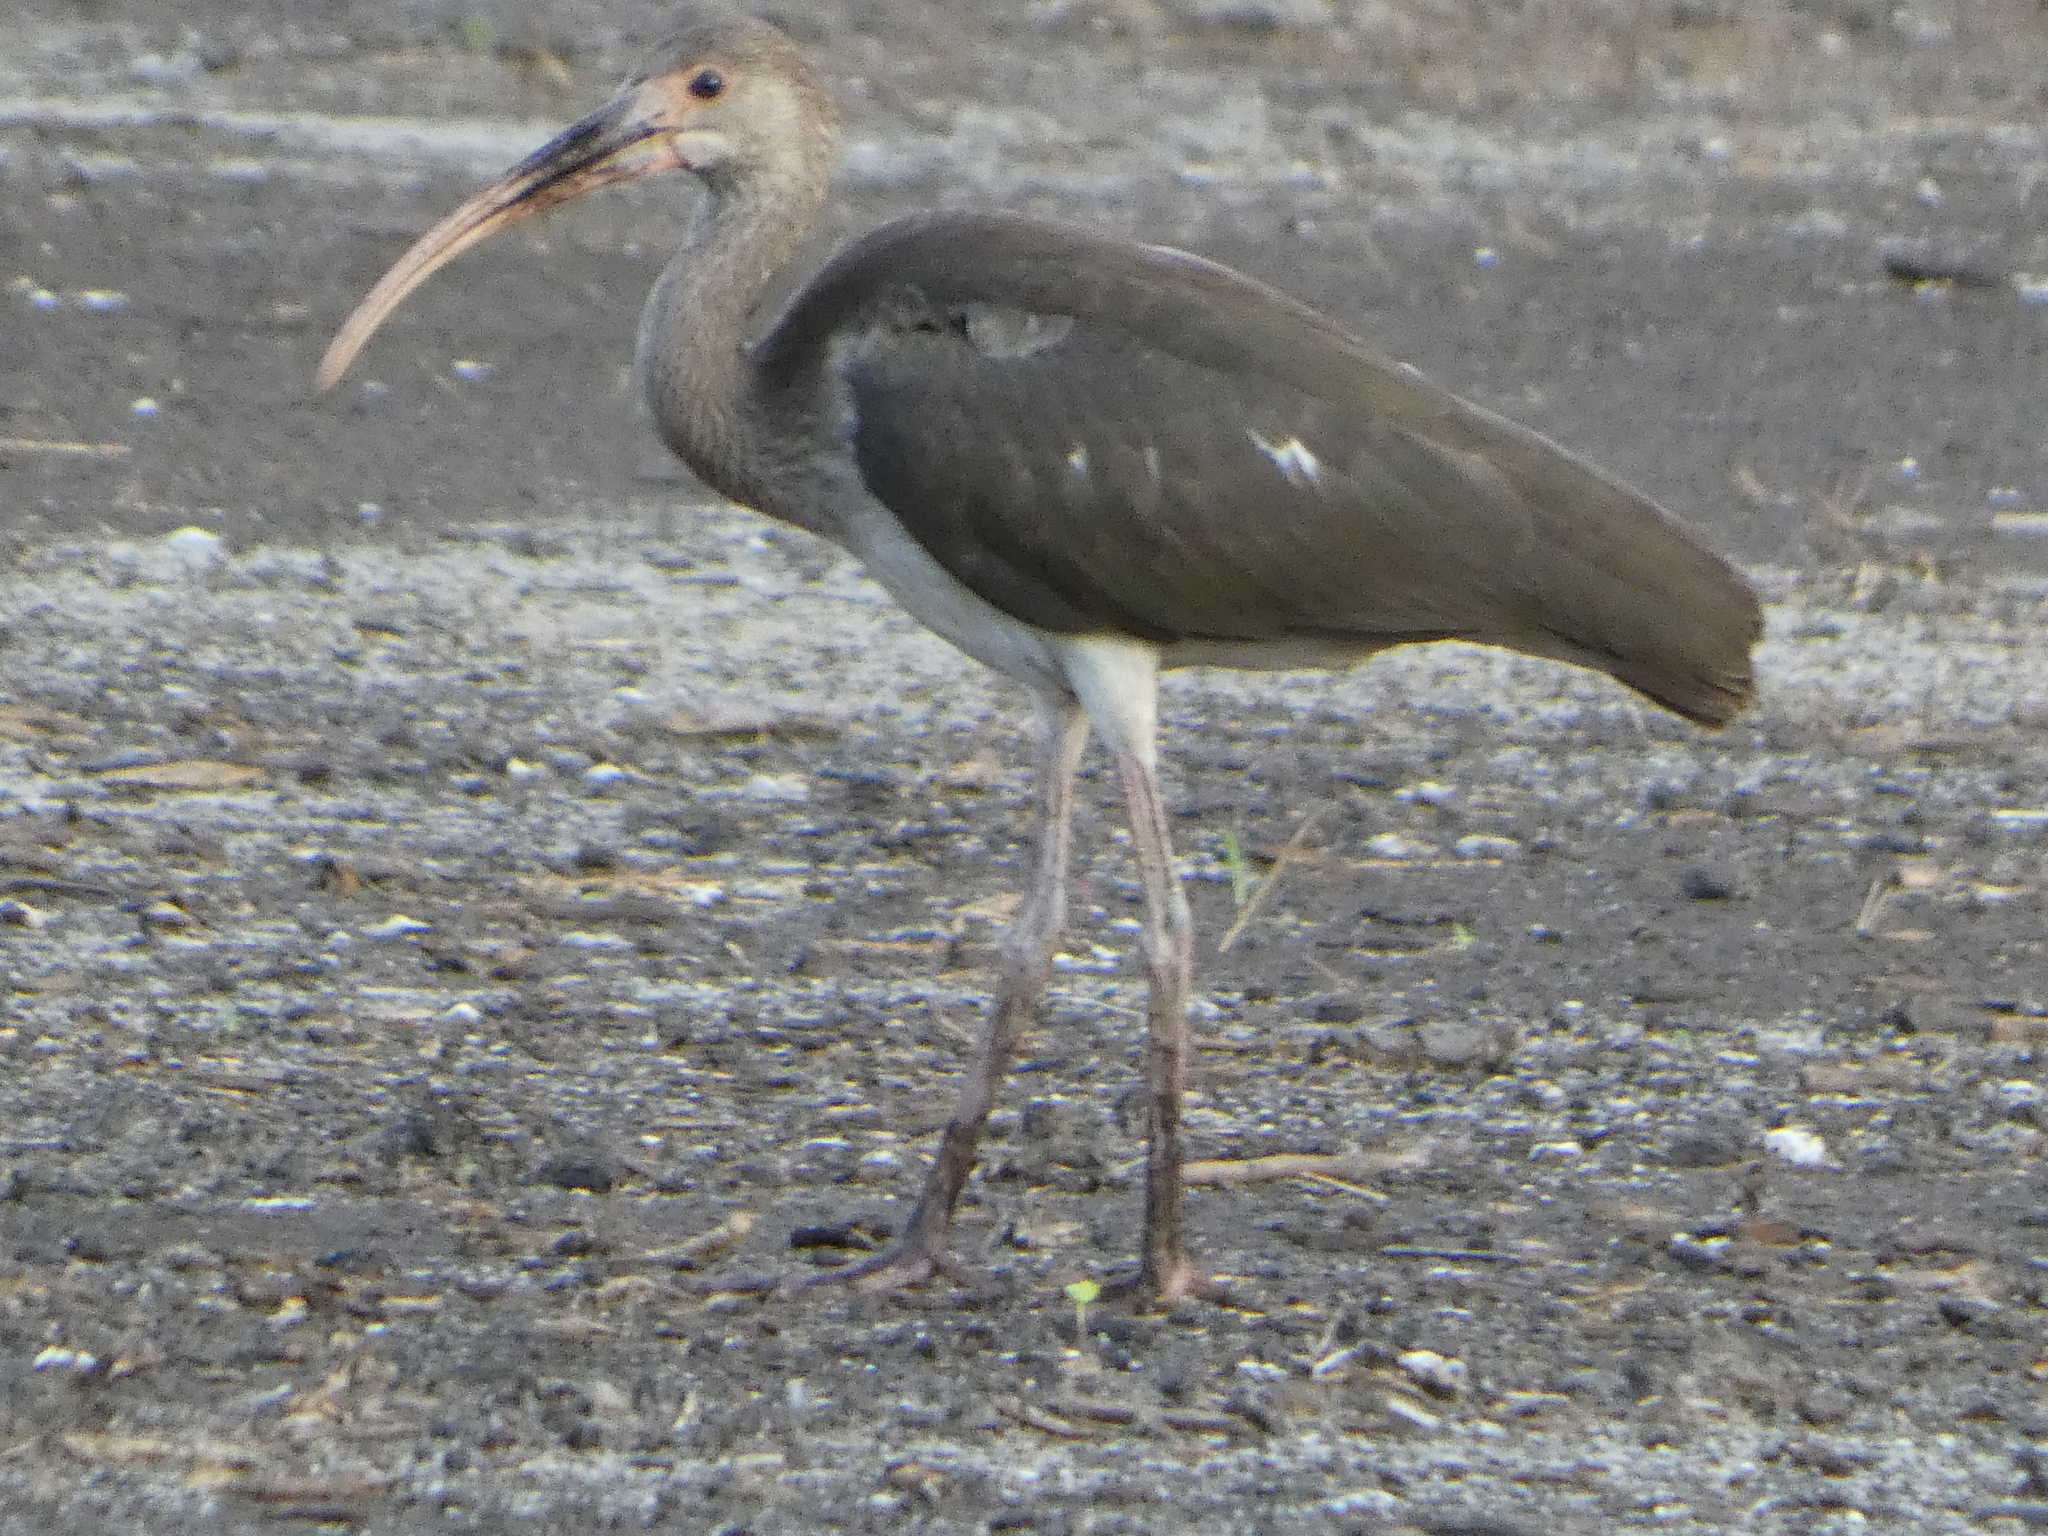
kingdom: Animalia
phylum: Chordata
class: Aves
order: Pelecaniformes
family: Threskiornithidae
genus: Eudocimus
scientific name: Eudocimus albus
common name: White ibis
